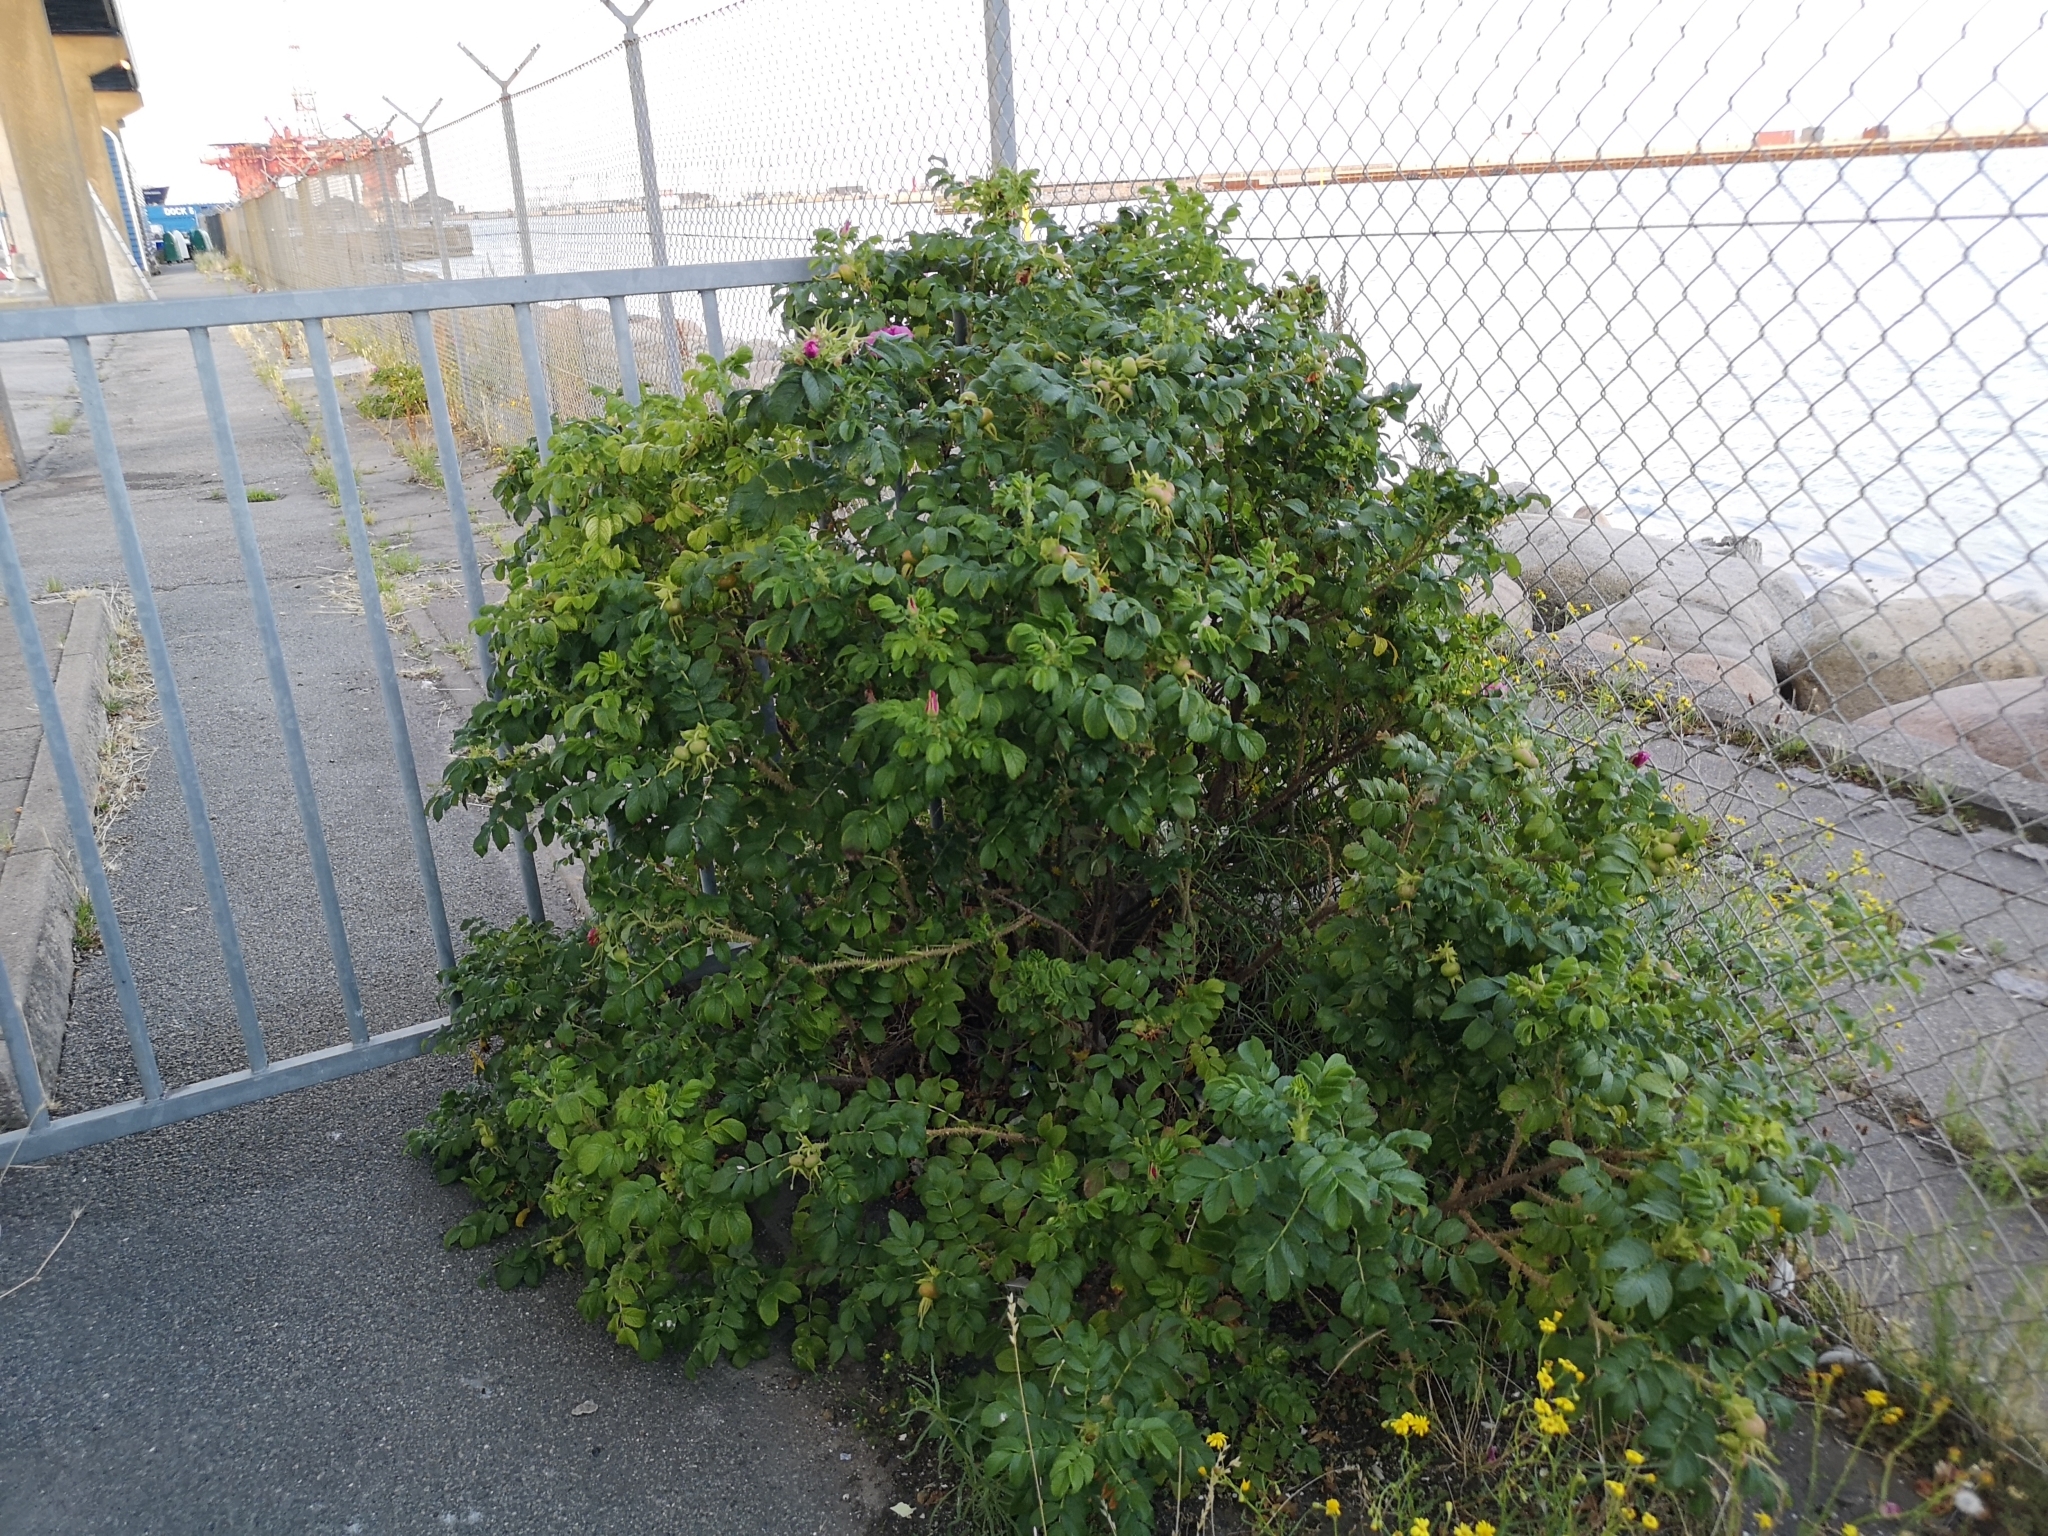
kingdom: Plantae
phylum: Tracheophyta
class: Magnoliopsida
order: Rosales
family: Rosaceae
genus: Rosa
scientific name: Rosa rugosa
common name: Japanese rose
